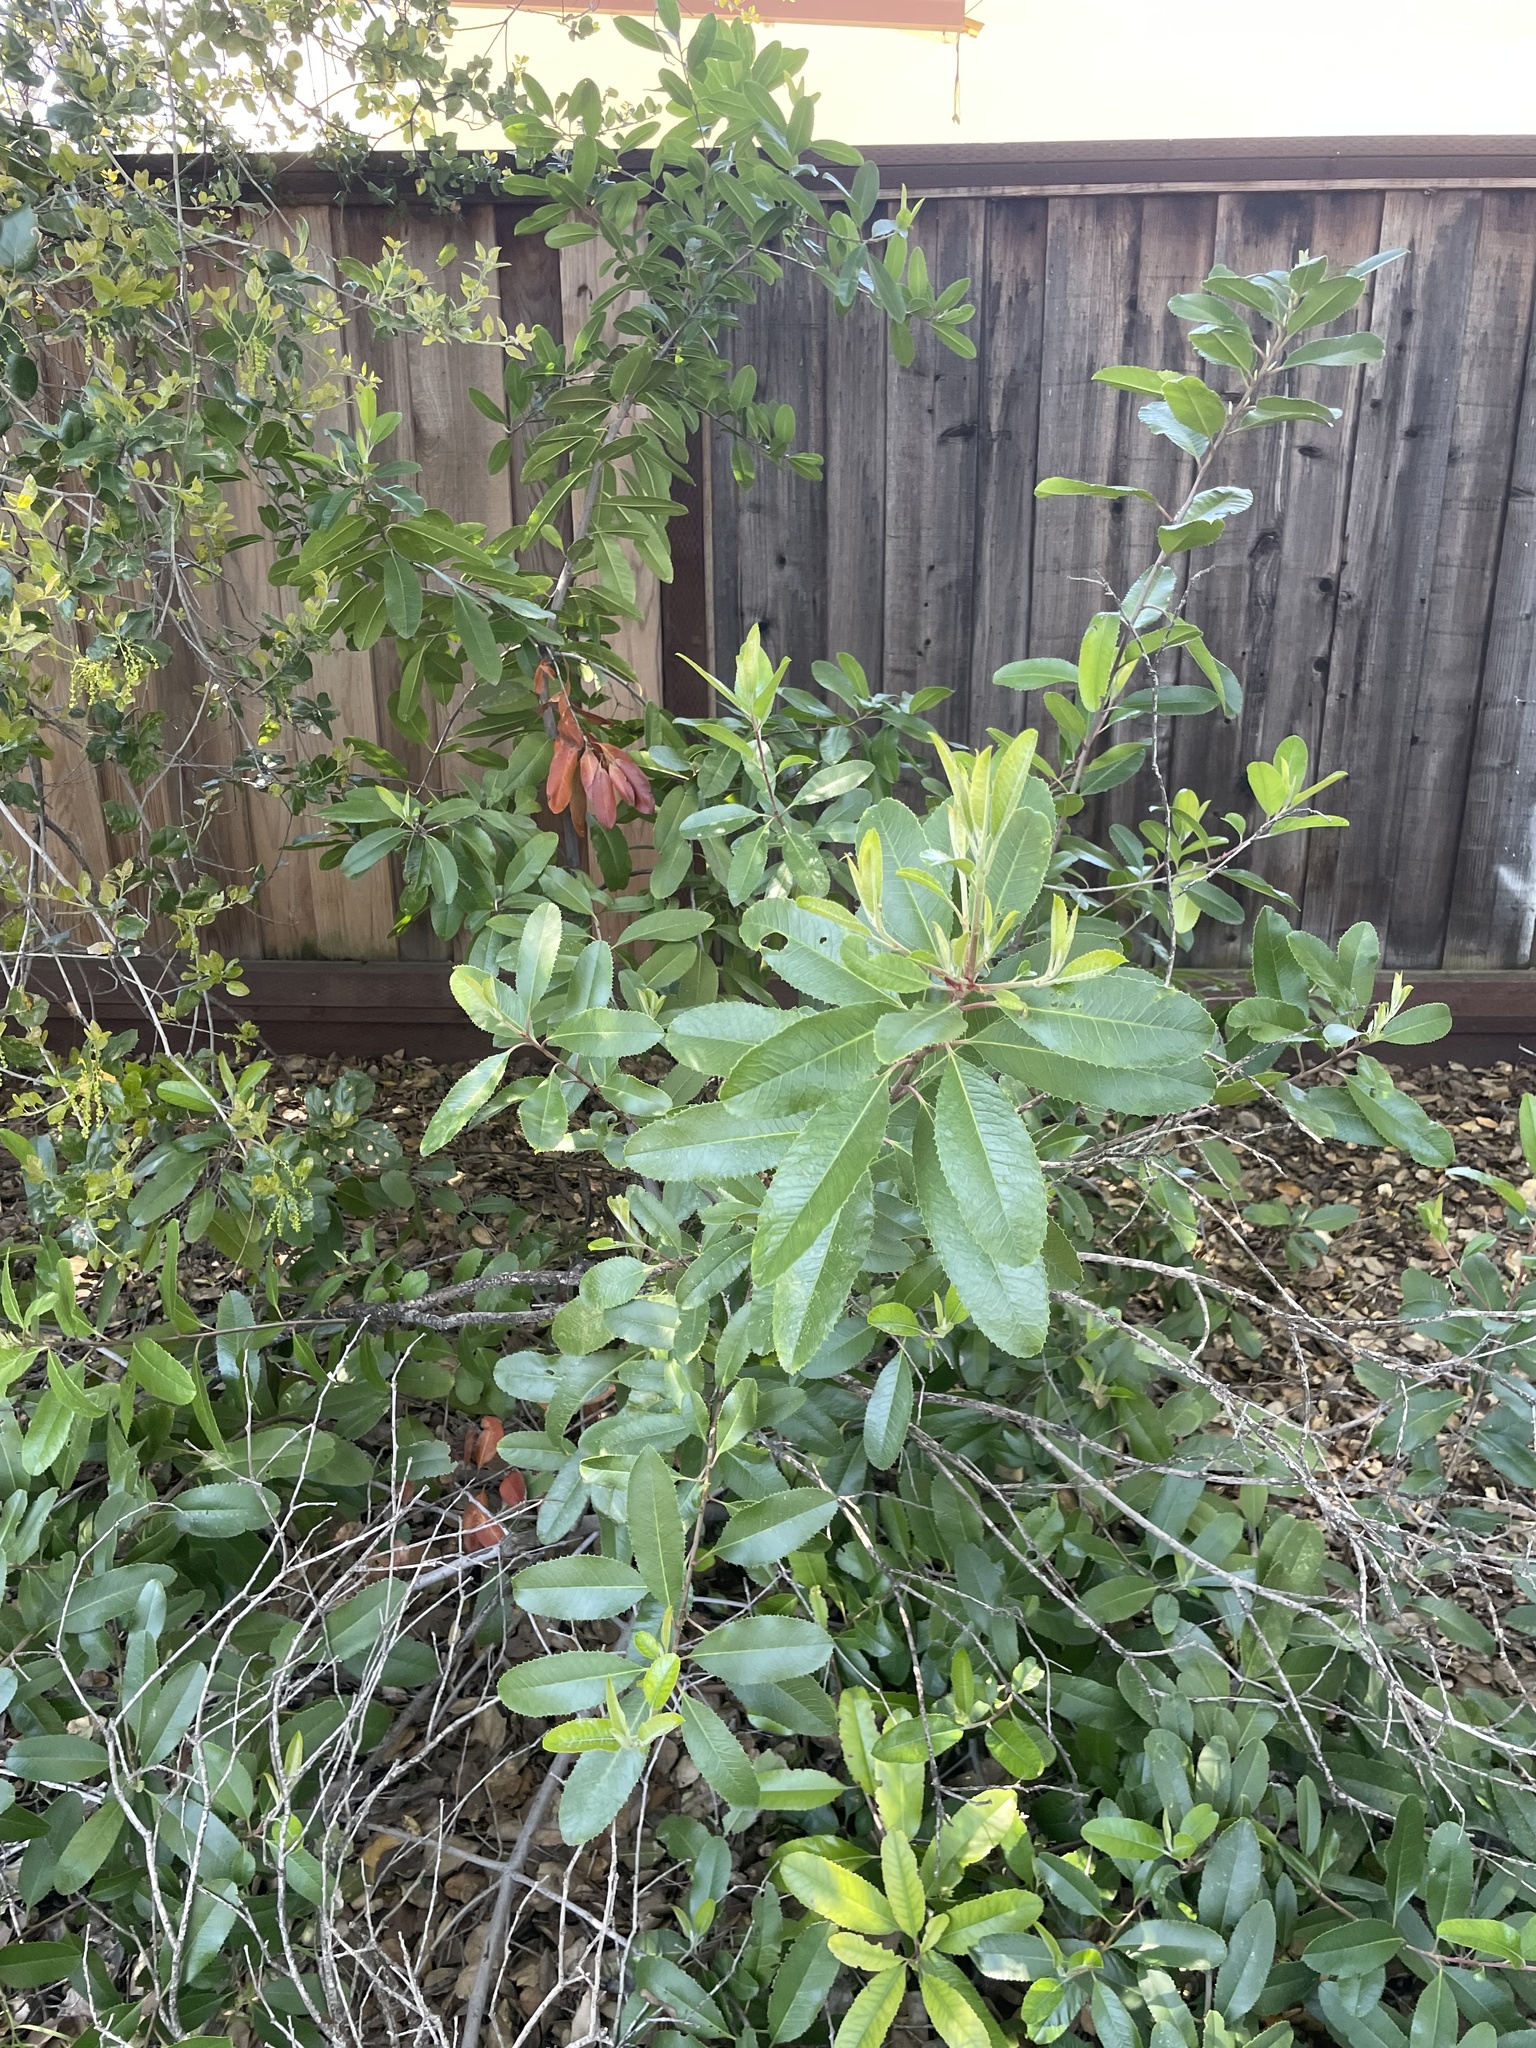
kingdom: Plantae
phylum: Tracheophyta
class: Magnoliopsida
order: Rosales
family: Rosaceae
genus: Heteromeles
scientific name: Heteromeles arbutifolia
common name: California-holly
